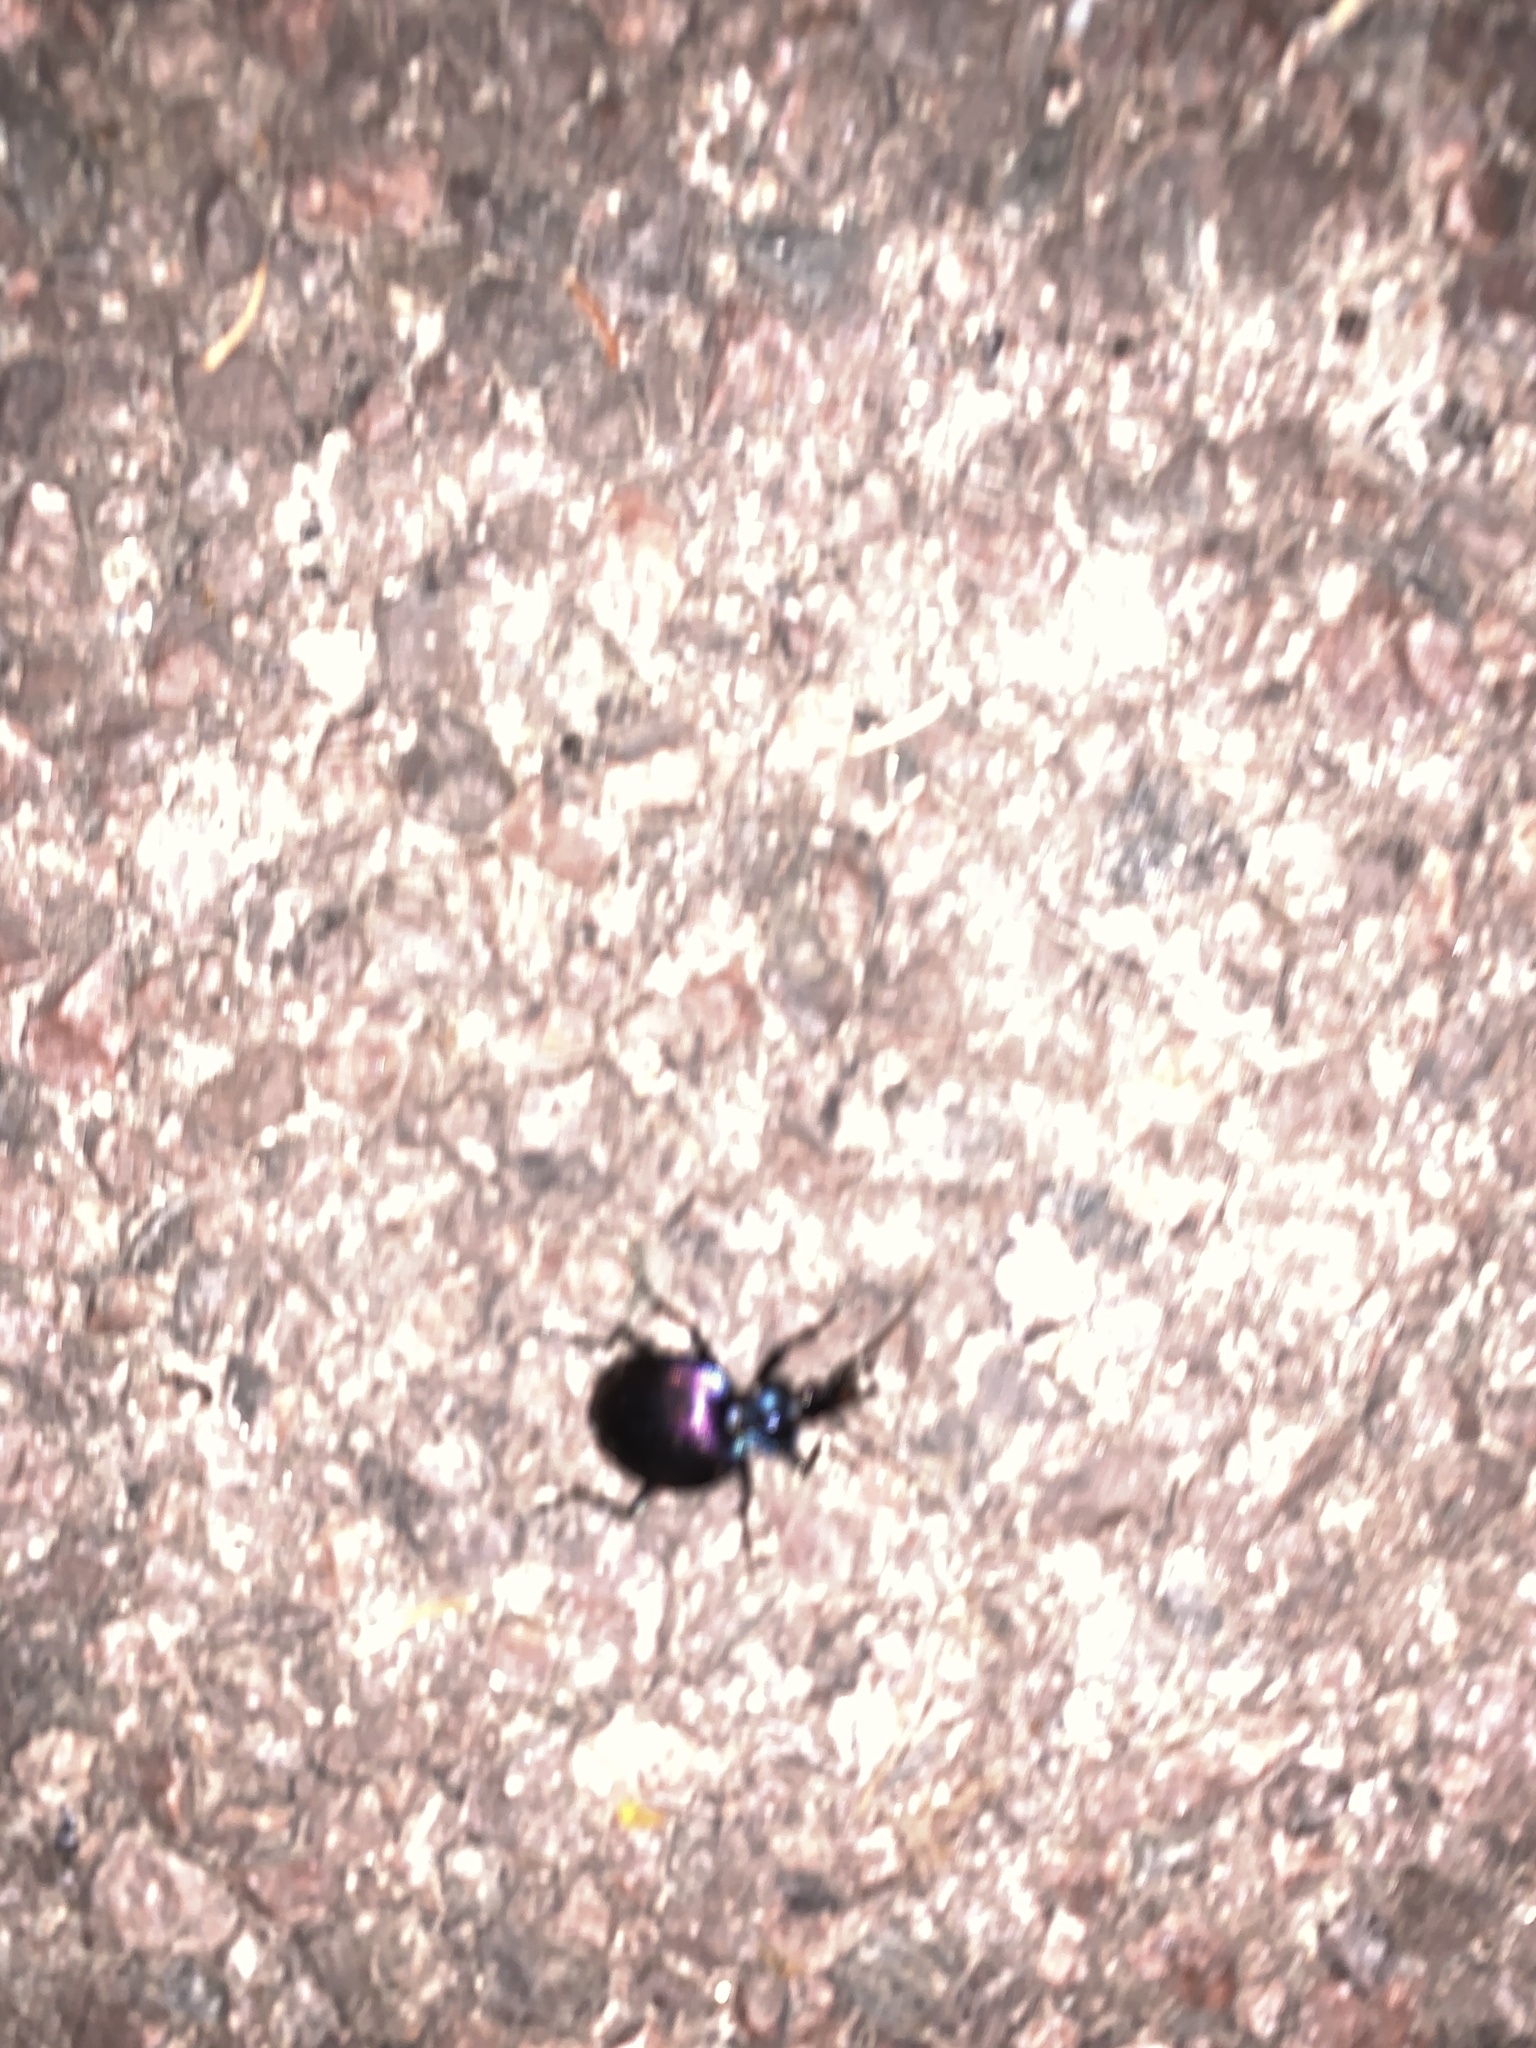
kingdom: Animalia
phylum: Arthropoda
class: Insecta
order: Coleoptera
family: Carabidae
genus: Scaphinotus
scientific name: Scaphinotus viduus
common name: Bereft snail-eating beetle
